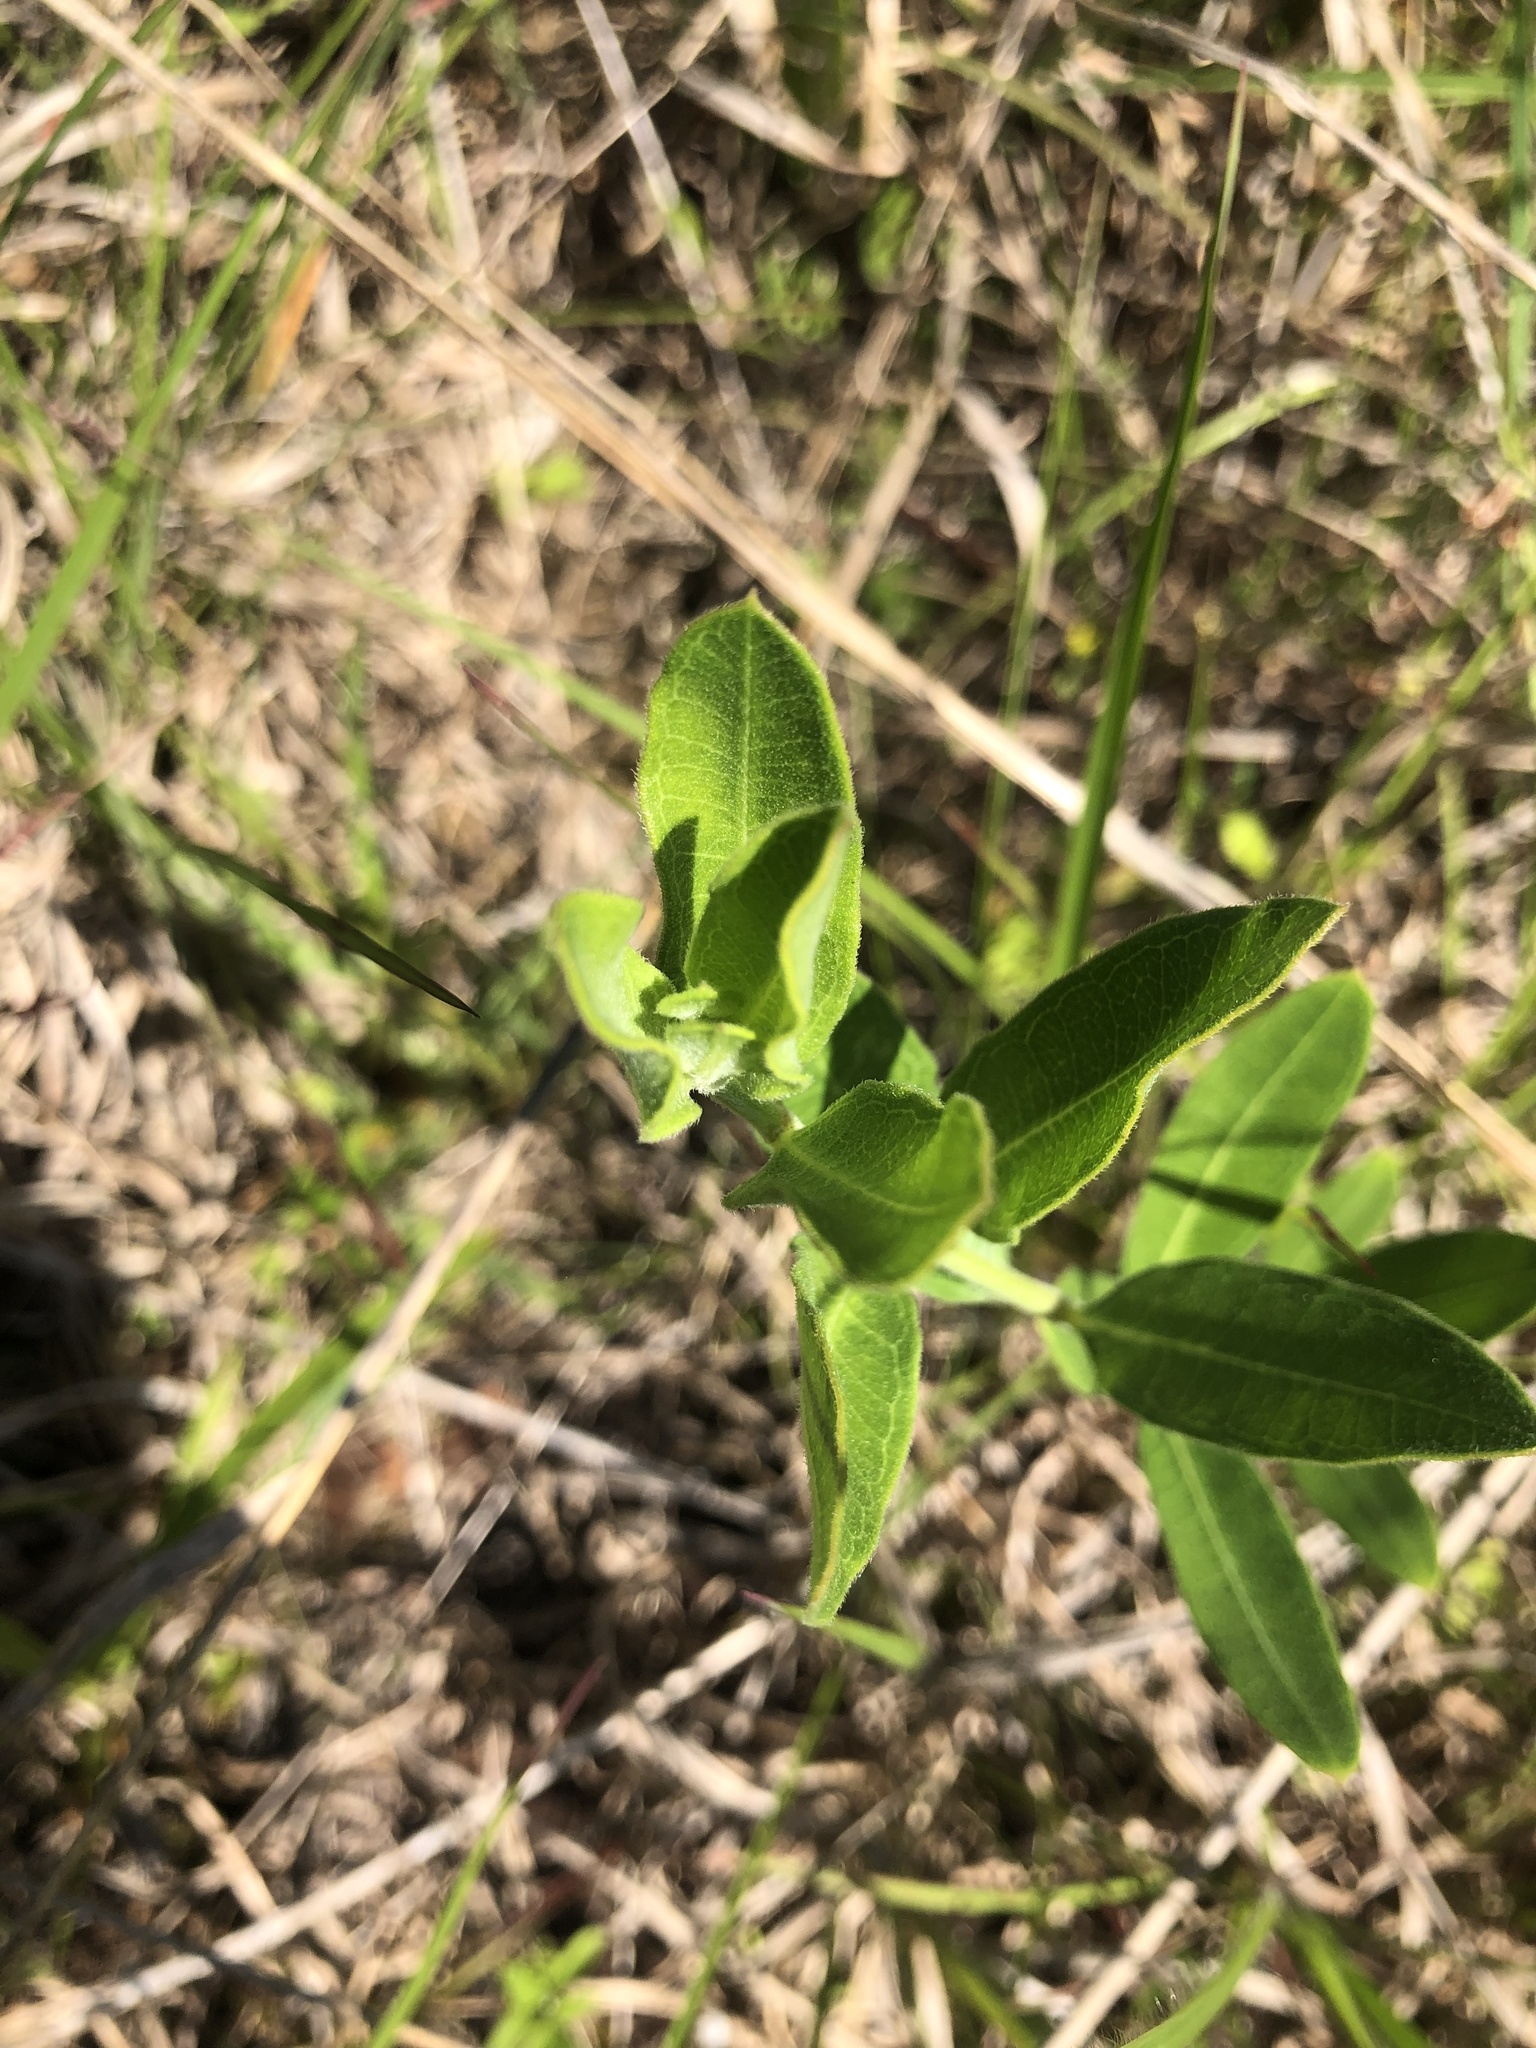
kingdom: Plantae
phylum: Tracheophyta
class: Magnoliopsida
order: Gentianales
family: Apocynaceae
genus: Asclepias
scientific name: Asclepias viridiflora
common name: Green comet milkweed
